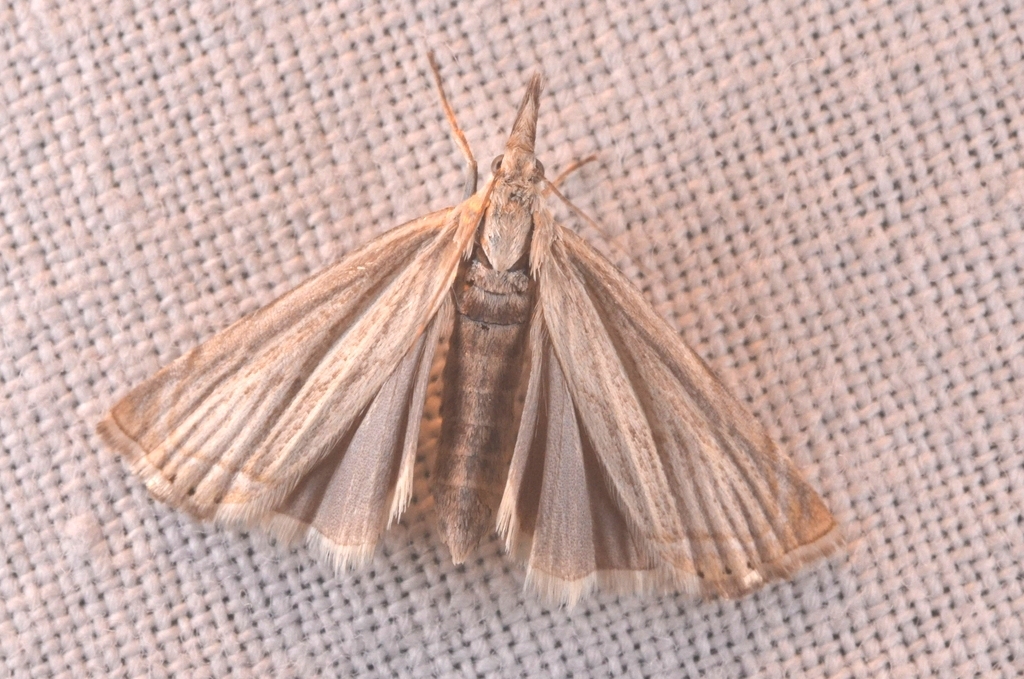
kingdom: Animalia
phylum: Arthropoda
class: Insecta
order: Lepidoptera
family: Crambidae
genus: Chrysoteuchia
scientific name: Chrysoteuchia culmella
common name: Garden grass-veneer
